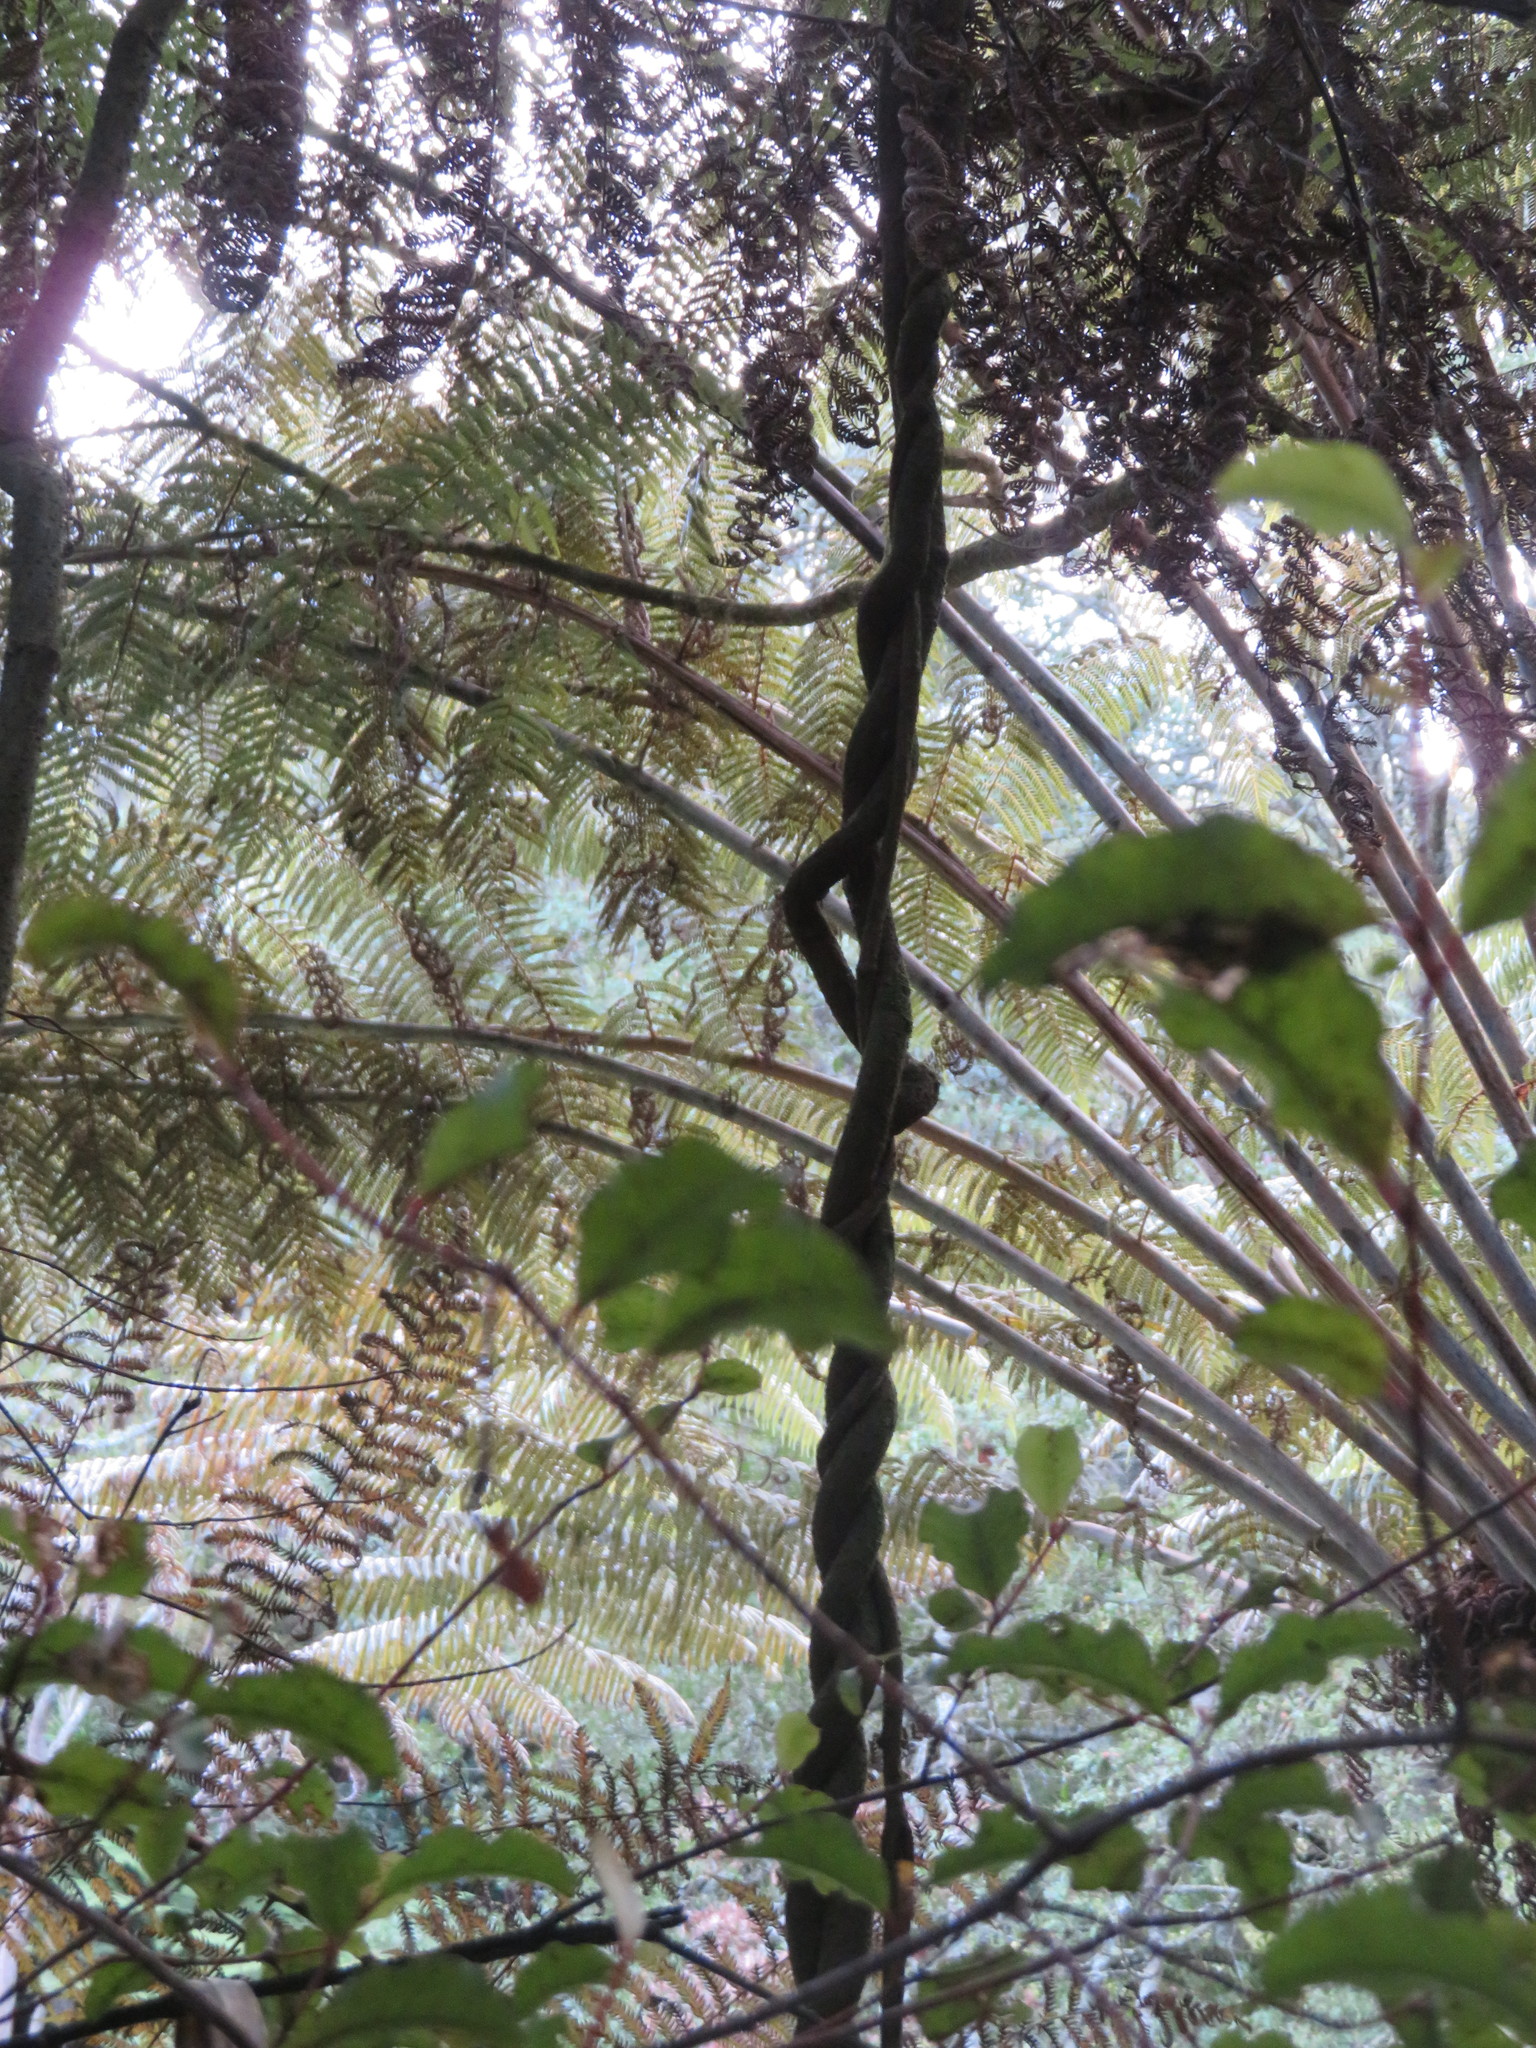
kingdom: Plantae
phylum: Tracheophyta
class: Polypodiopsida
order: Cyatheales
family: Cyatheaceae
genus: Alsophila
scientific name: Alsophila dealbata
